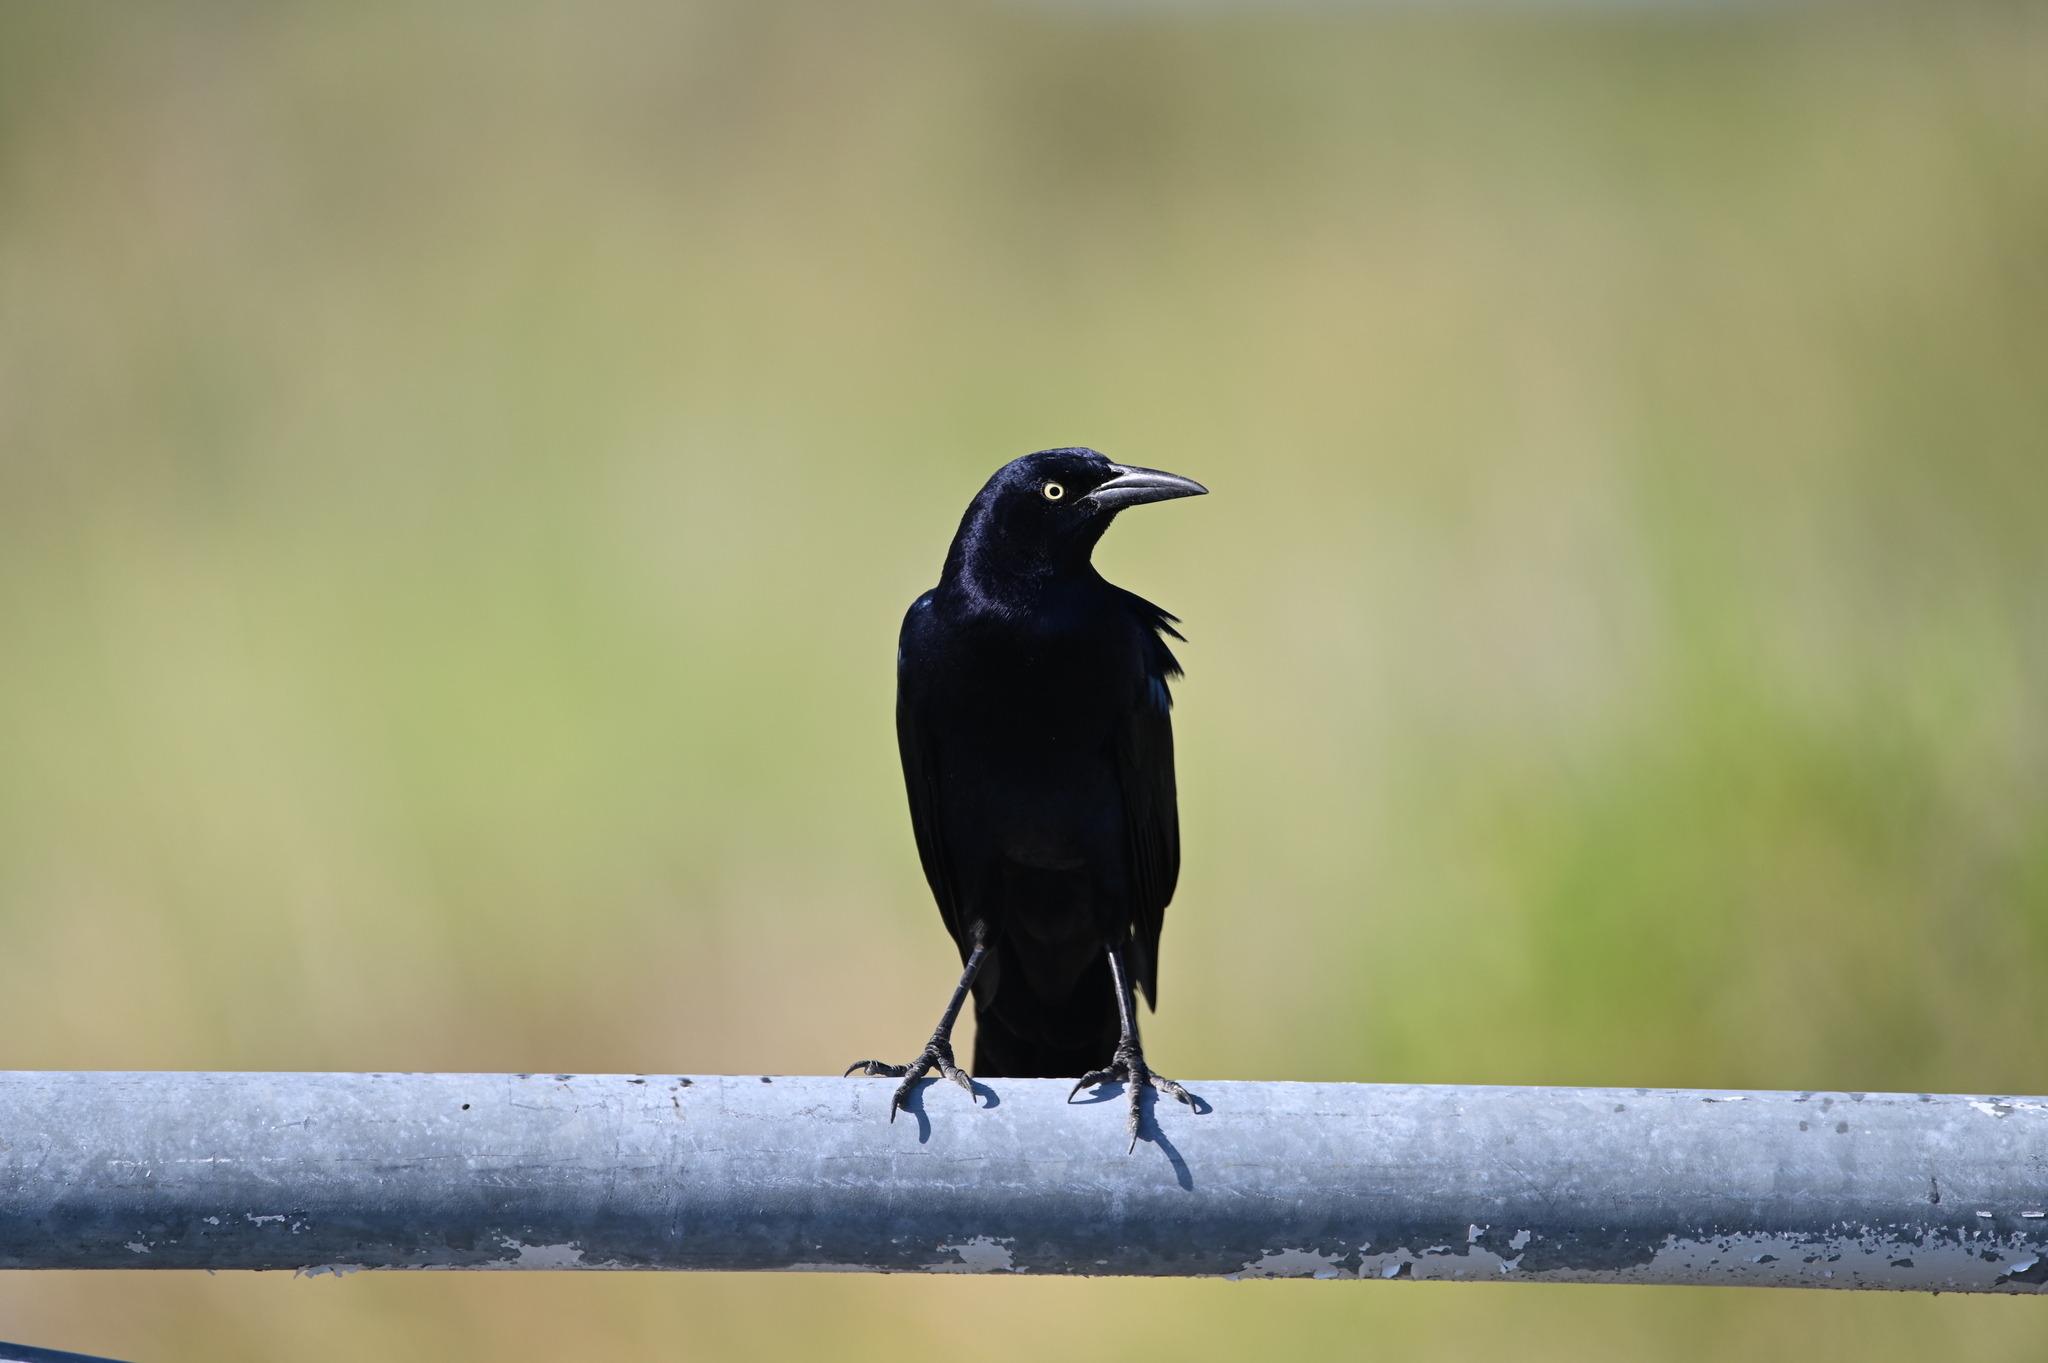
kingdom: Animalia
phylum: Chordata
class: Aves
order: Passeriformes
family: Icteridae
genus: Quiscalus
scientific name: Quiscalus mexicanus
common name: Great-tailed grackle
